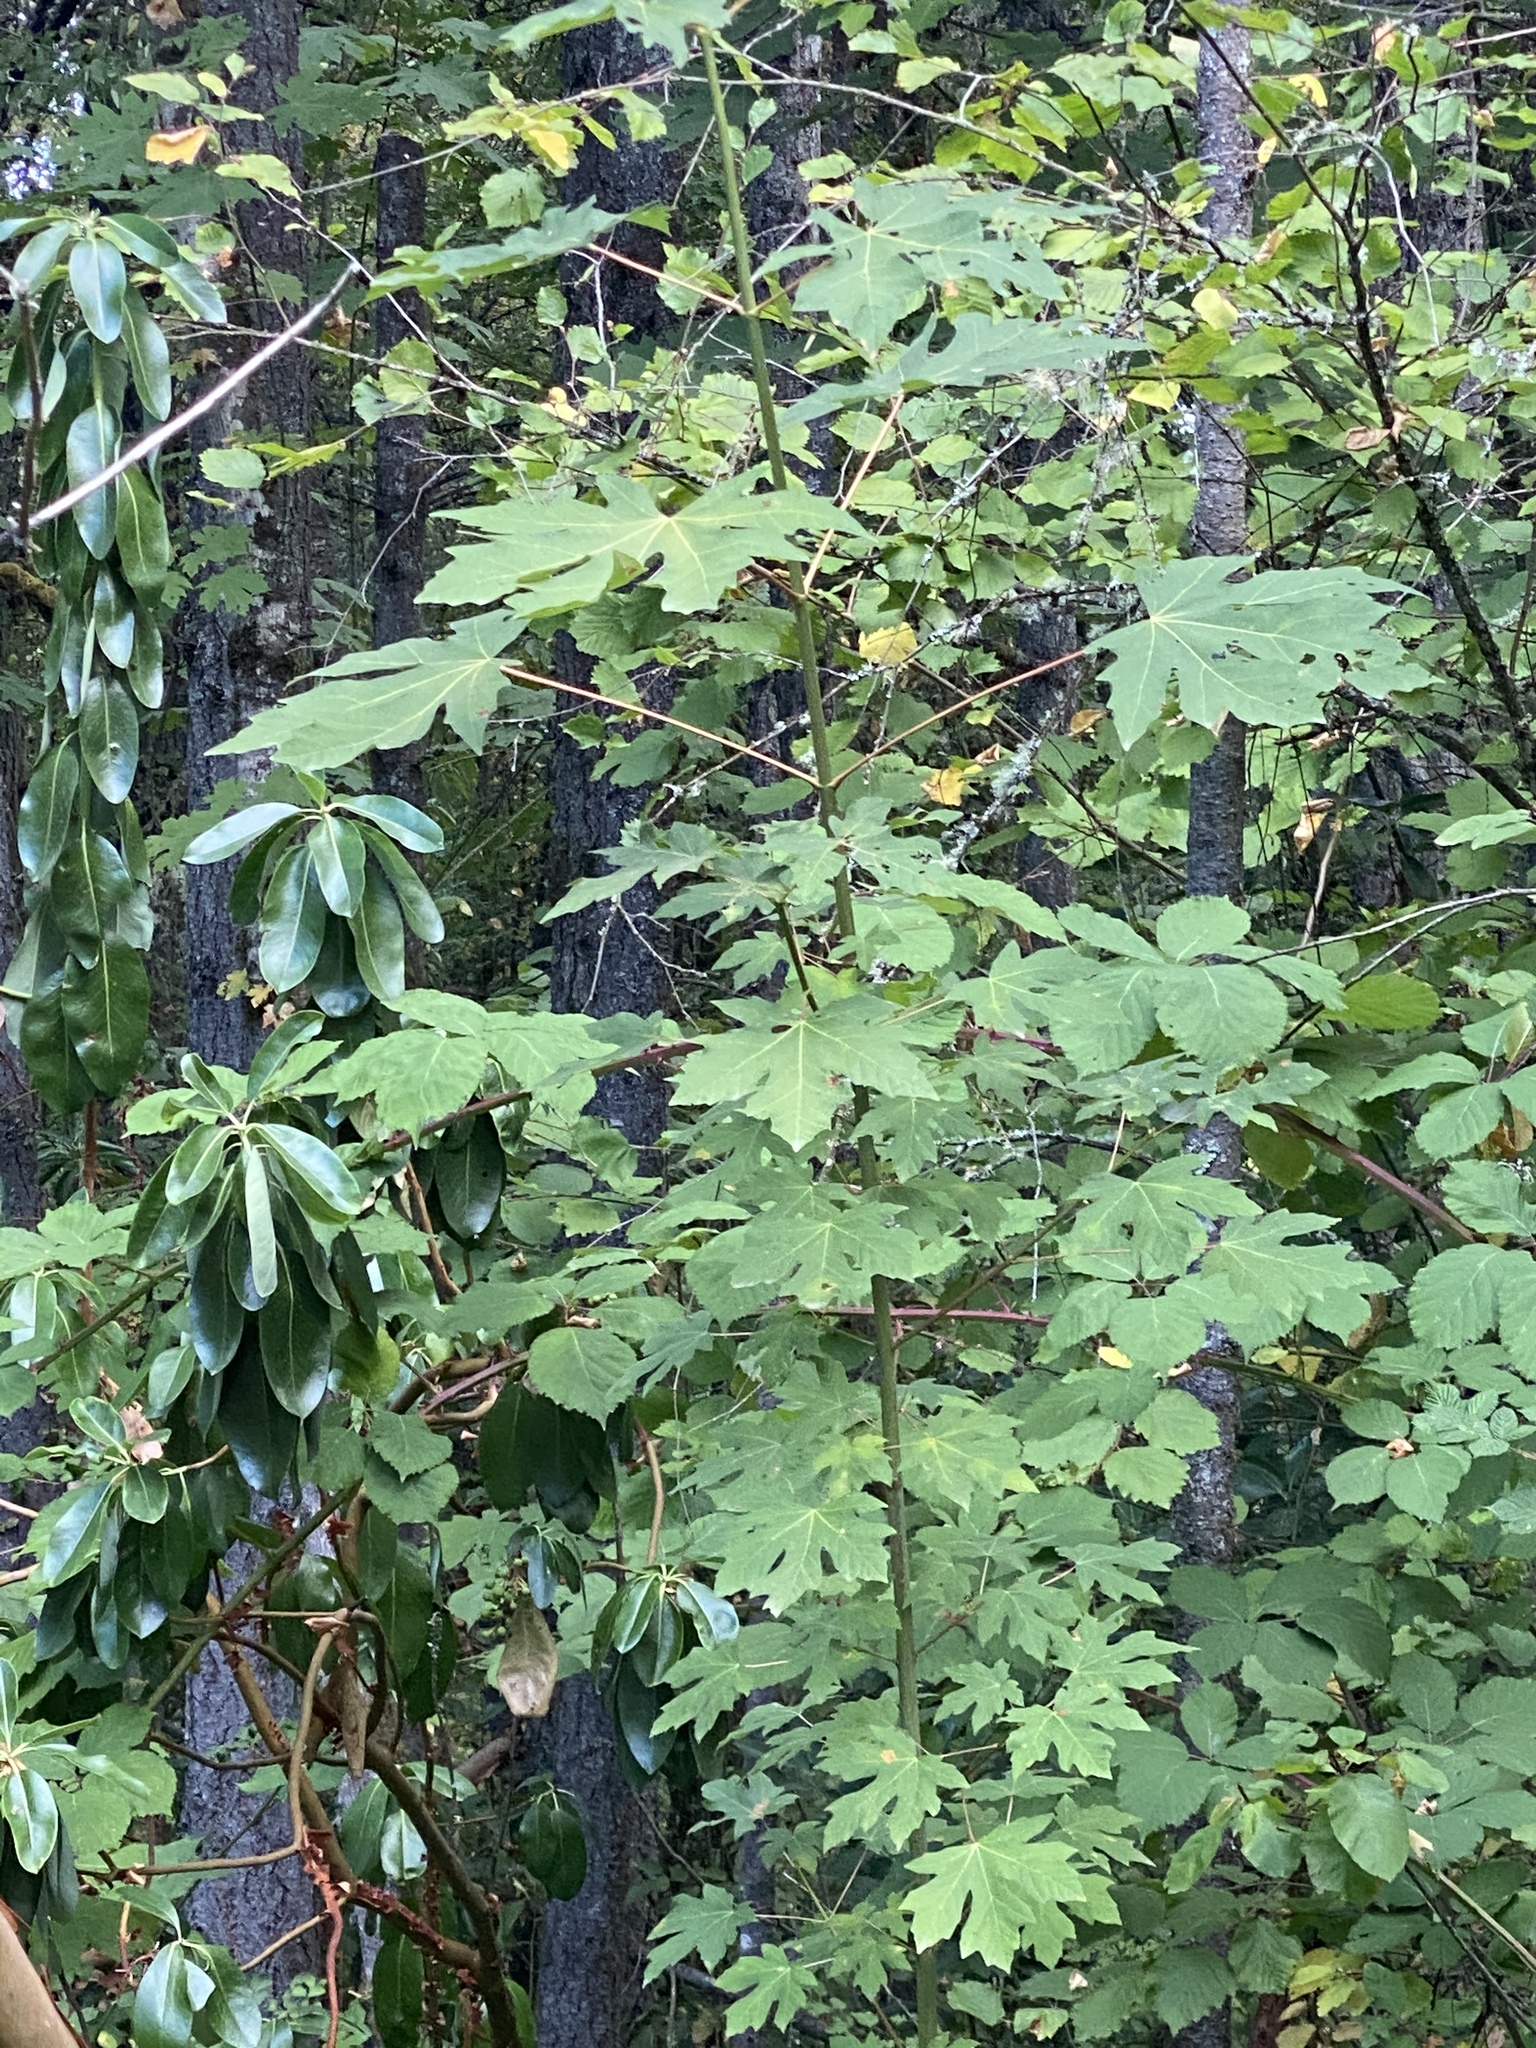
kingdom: Plantae
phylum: Tracheophyta
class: Magnoliopsida
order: Sapindales
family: Sapindaceae
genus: Acer
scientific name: Acer macrophyllum
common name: Oregon maple
